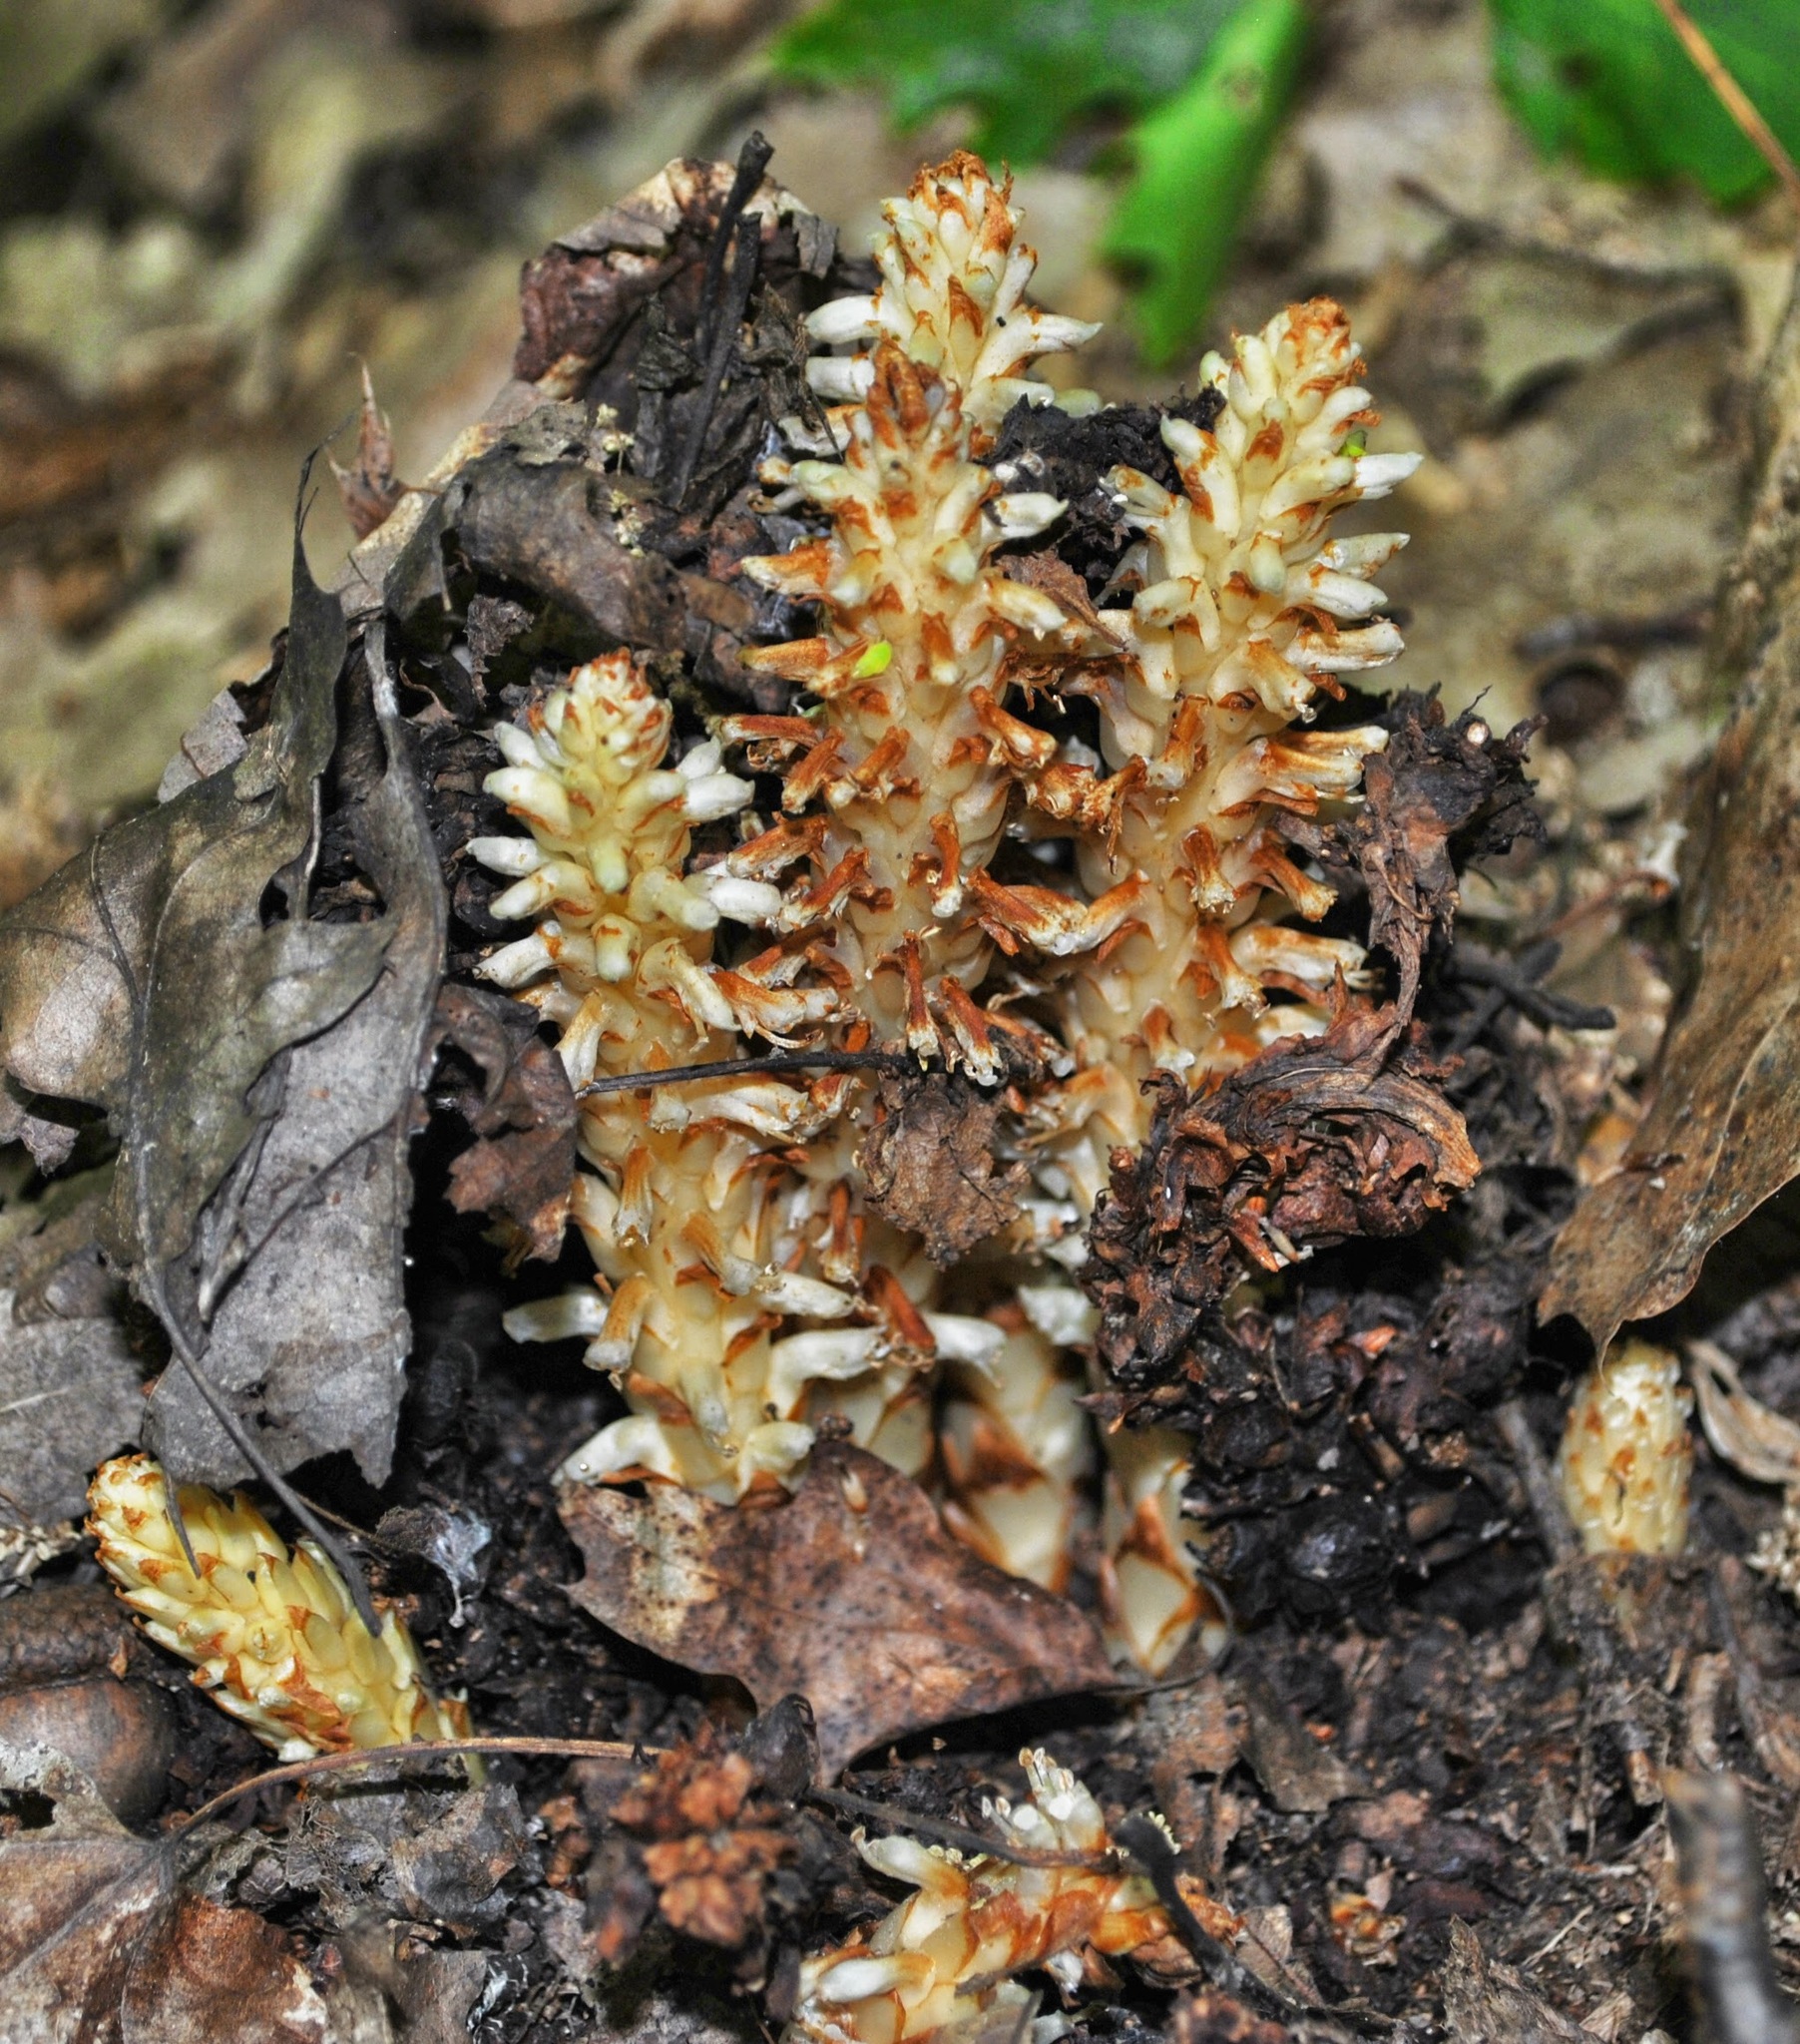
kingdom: Plantae
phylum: Tracheophyta
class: Magnoliopsida
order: Lamiales
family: Orobanchaceae
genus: Conopholis
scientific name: Conopholis americana
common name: American cancer-root
